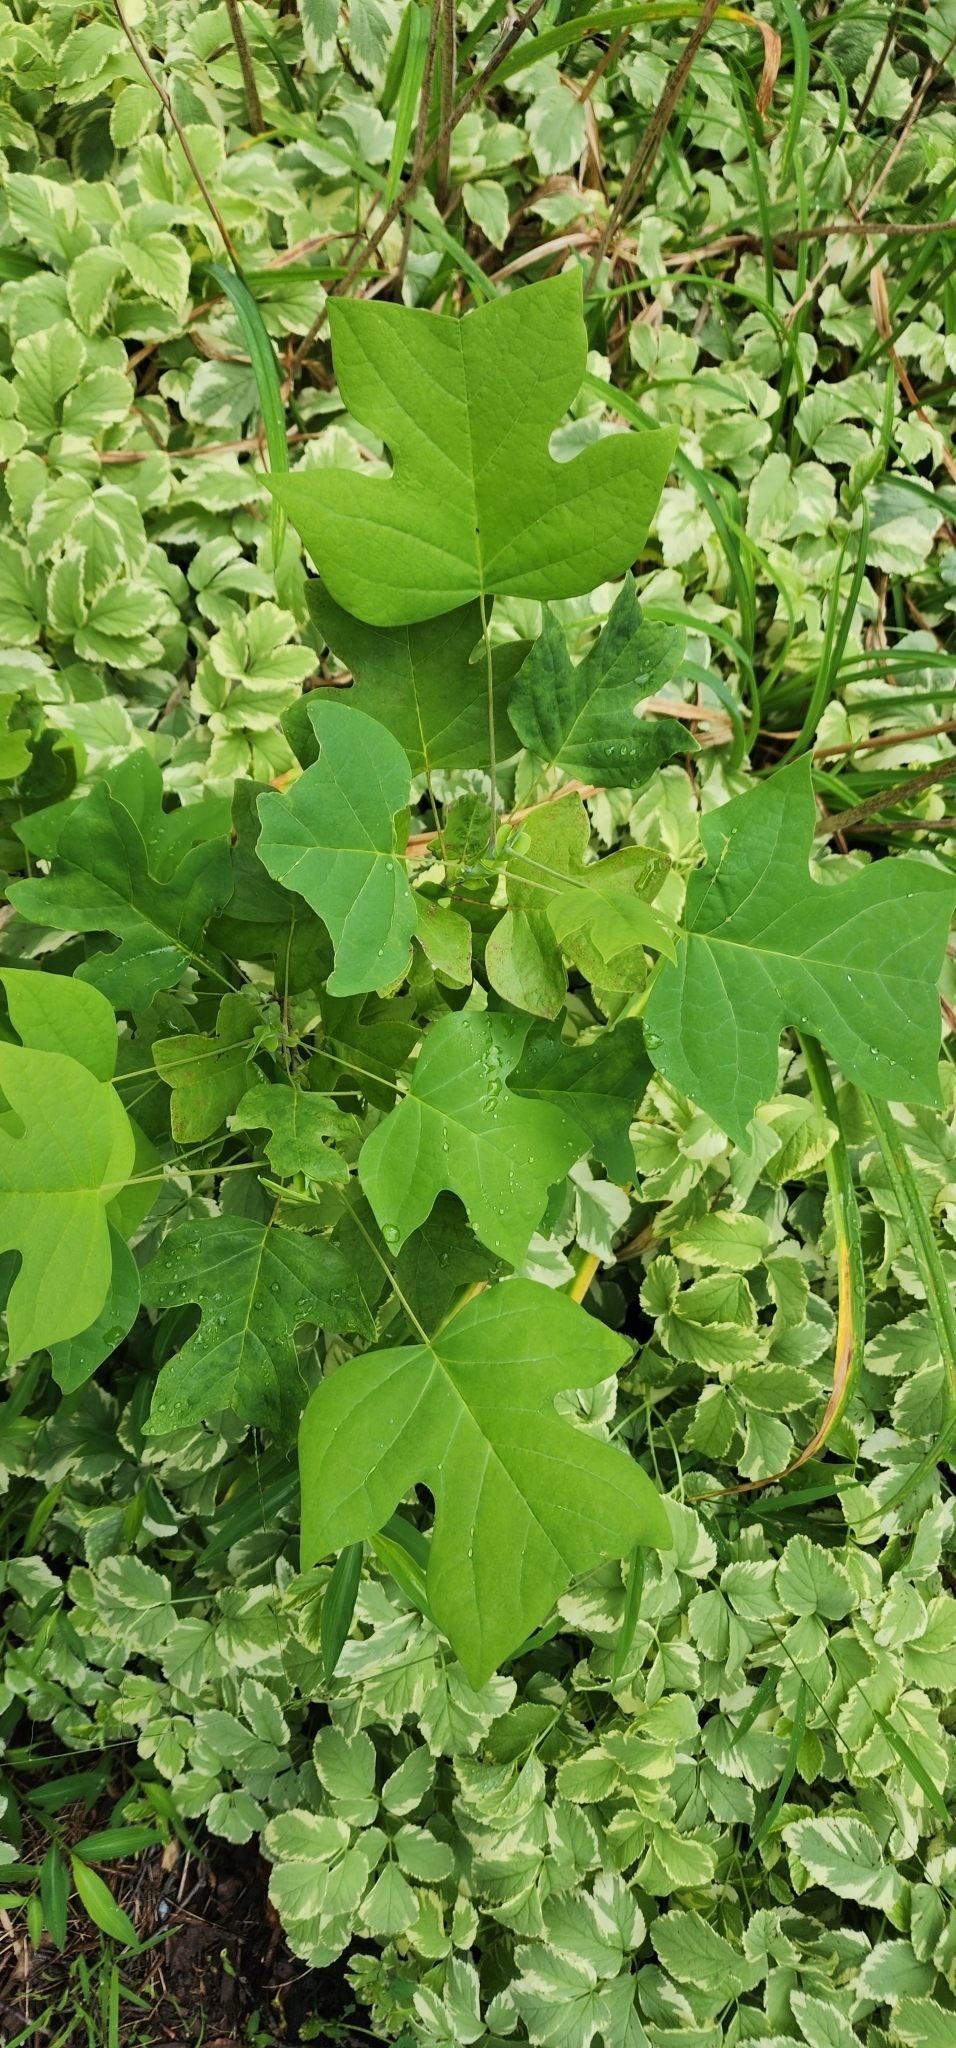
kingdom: Plantae
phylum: Tracheophyta
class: Magnoliopsida
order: Magnoliales
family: Magnoliaceae
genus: Liriodendron
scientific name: Liriodendron tulipifera
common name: Tulip tree
